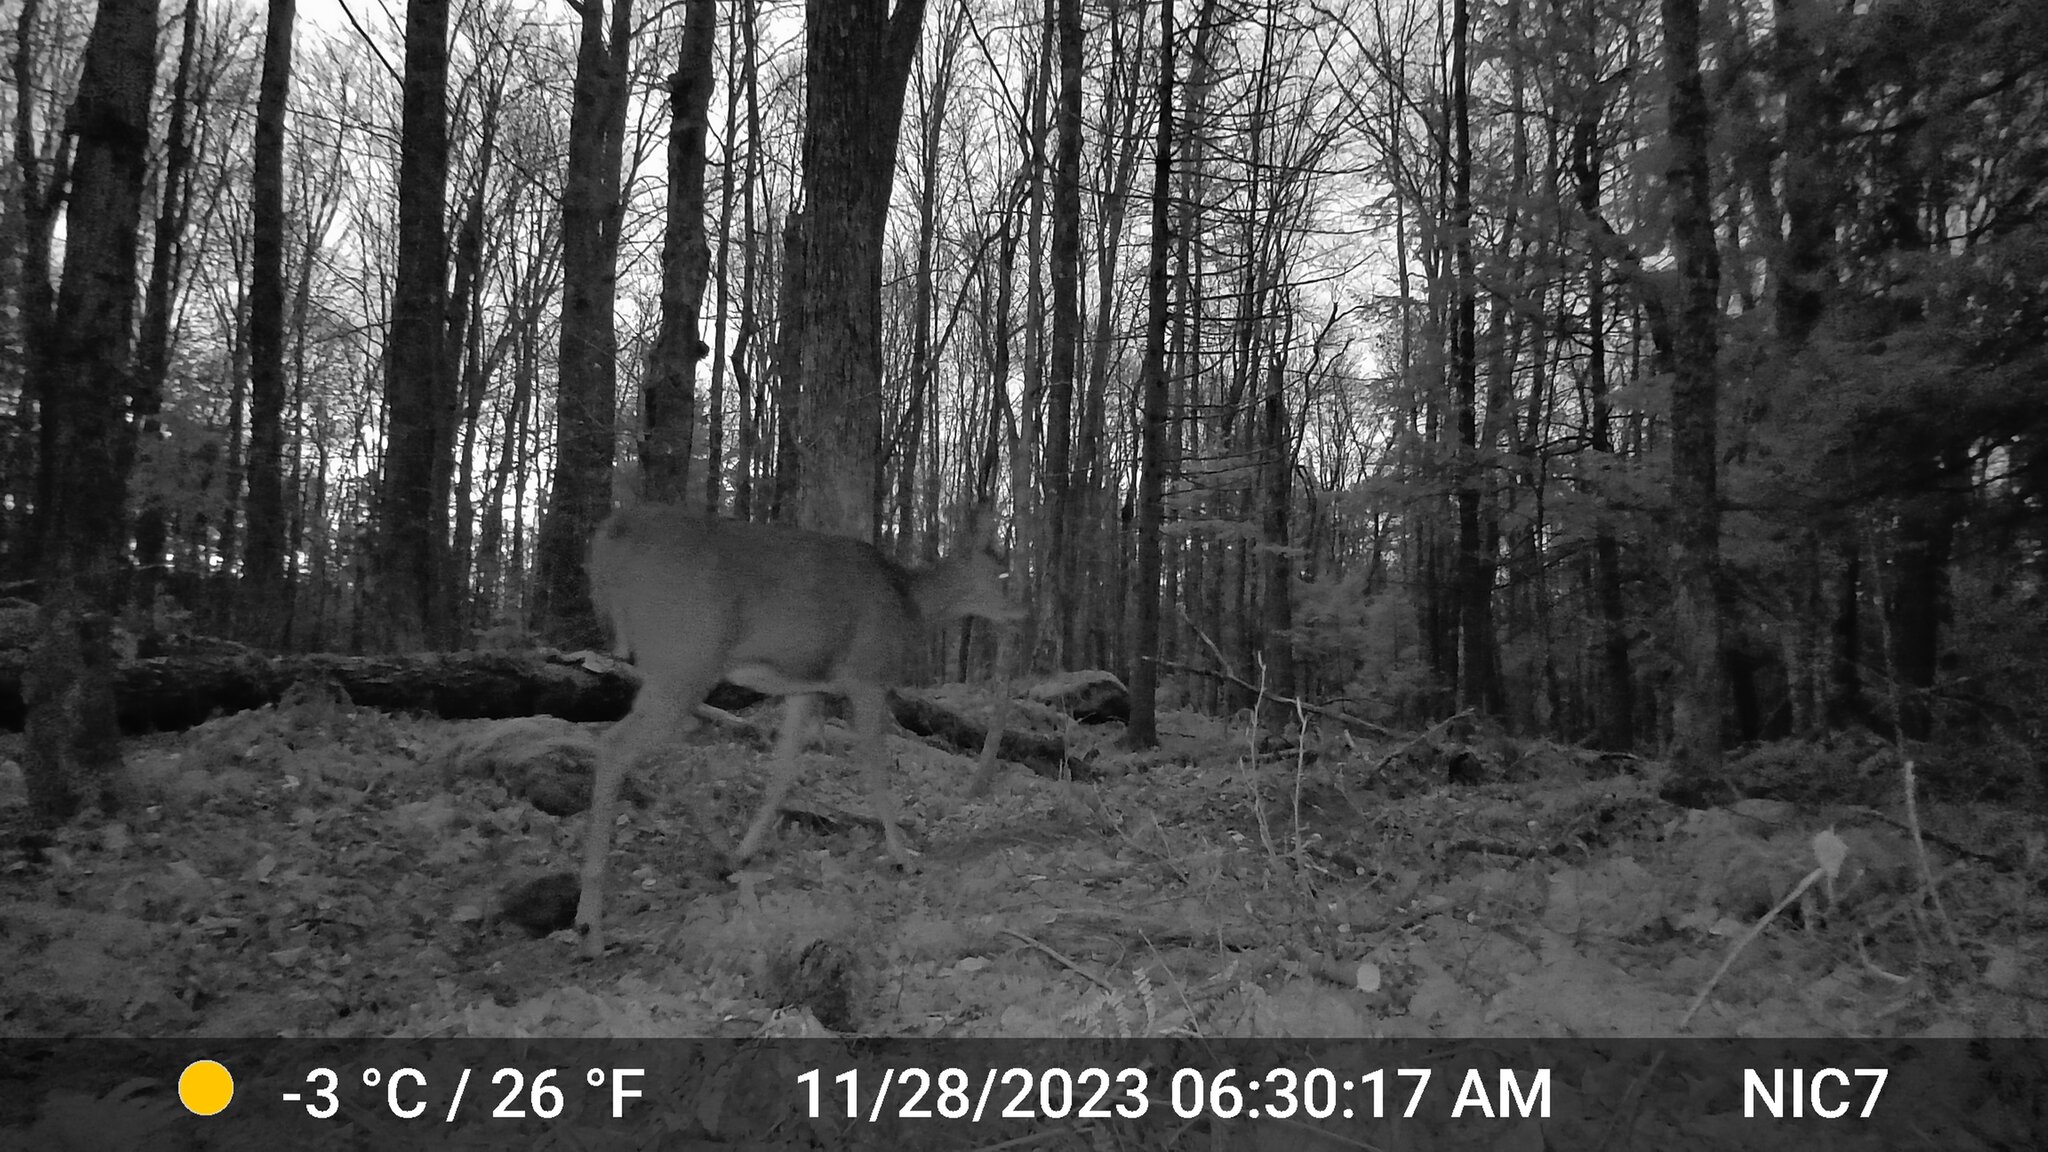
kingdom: Animalia
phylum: Chordata
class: Mammalia
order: Artiodactyla
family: Cervidae
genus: Odocoileus
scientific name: Odocoileus virginianus
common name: White-tailed deer
